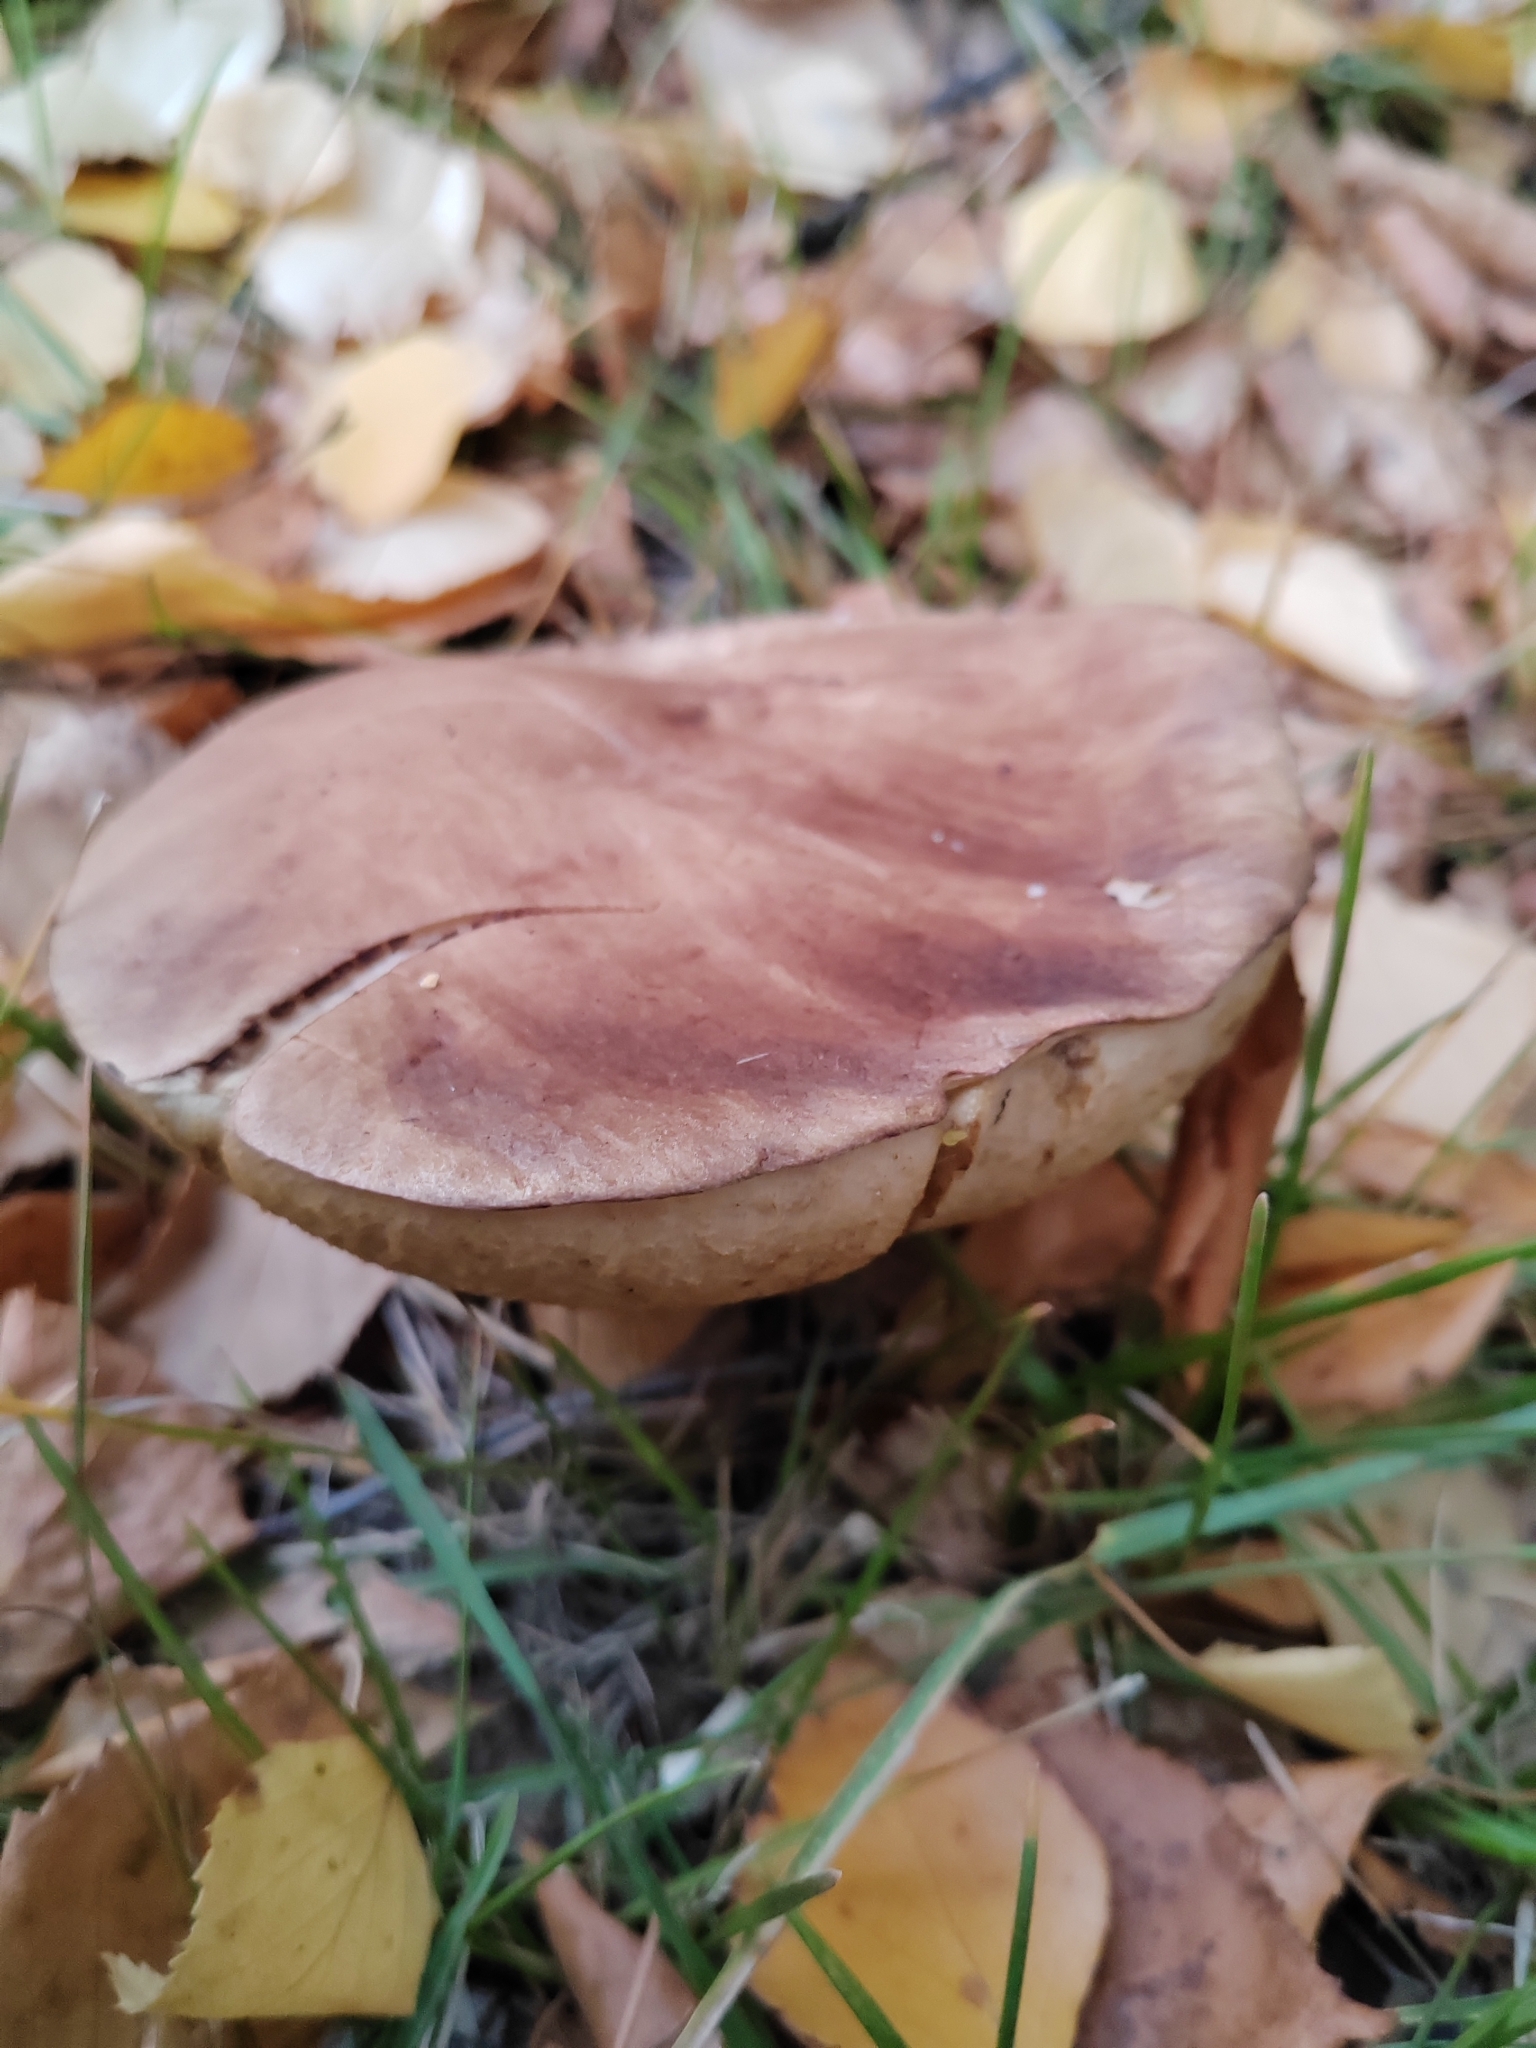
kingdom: Fungi
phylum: Basidiomycota
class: Agaricomycetes
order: Boletales
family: Boletaceae
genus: Leccinum
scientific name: Leccinum scabrum
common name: Blushing bolete
